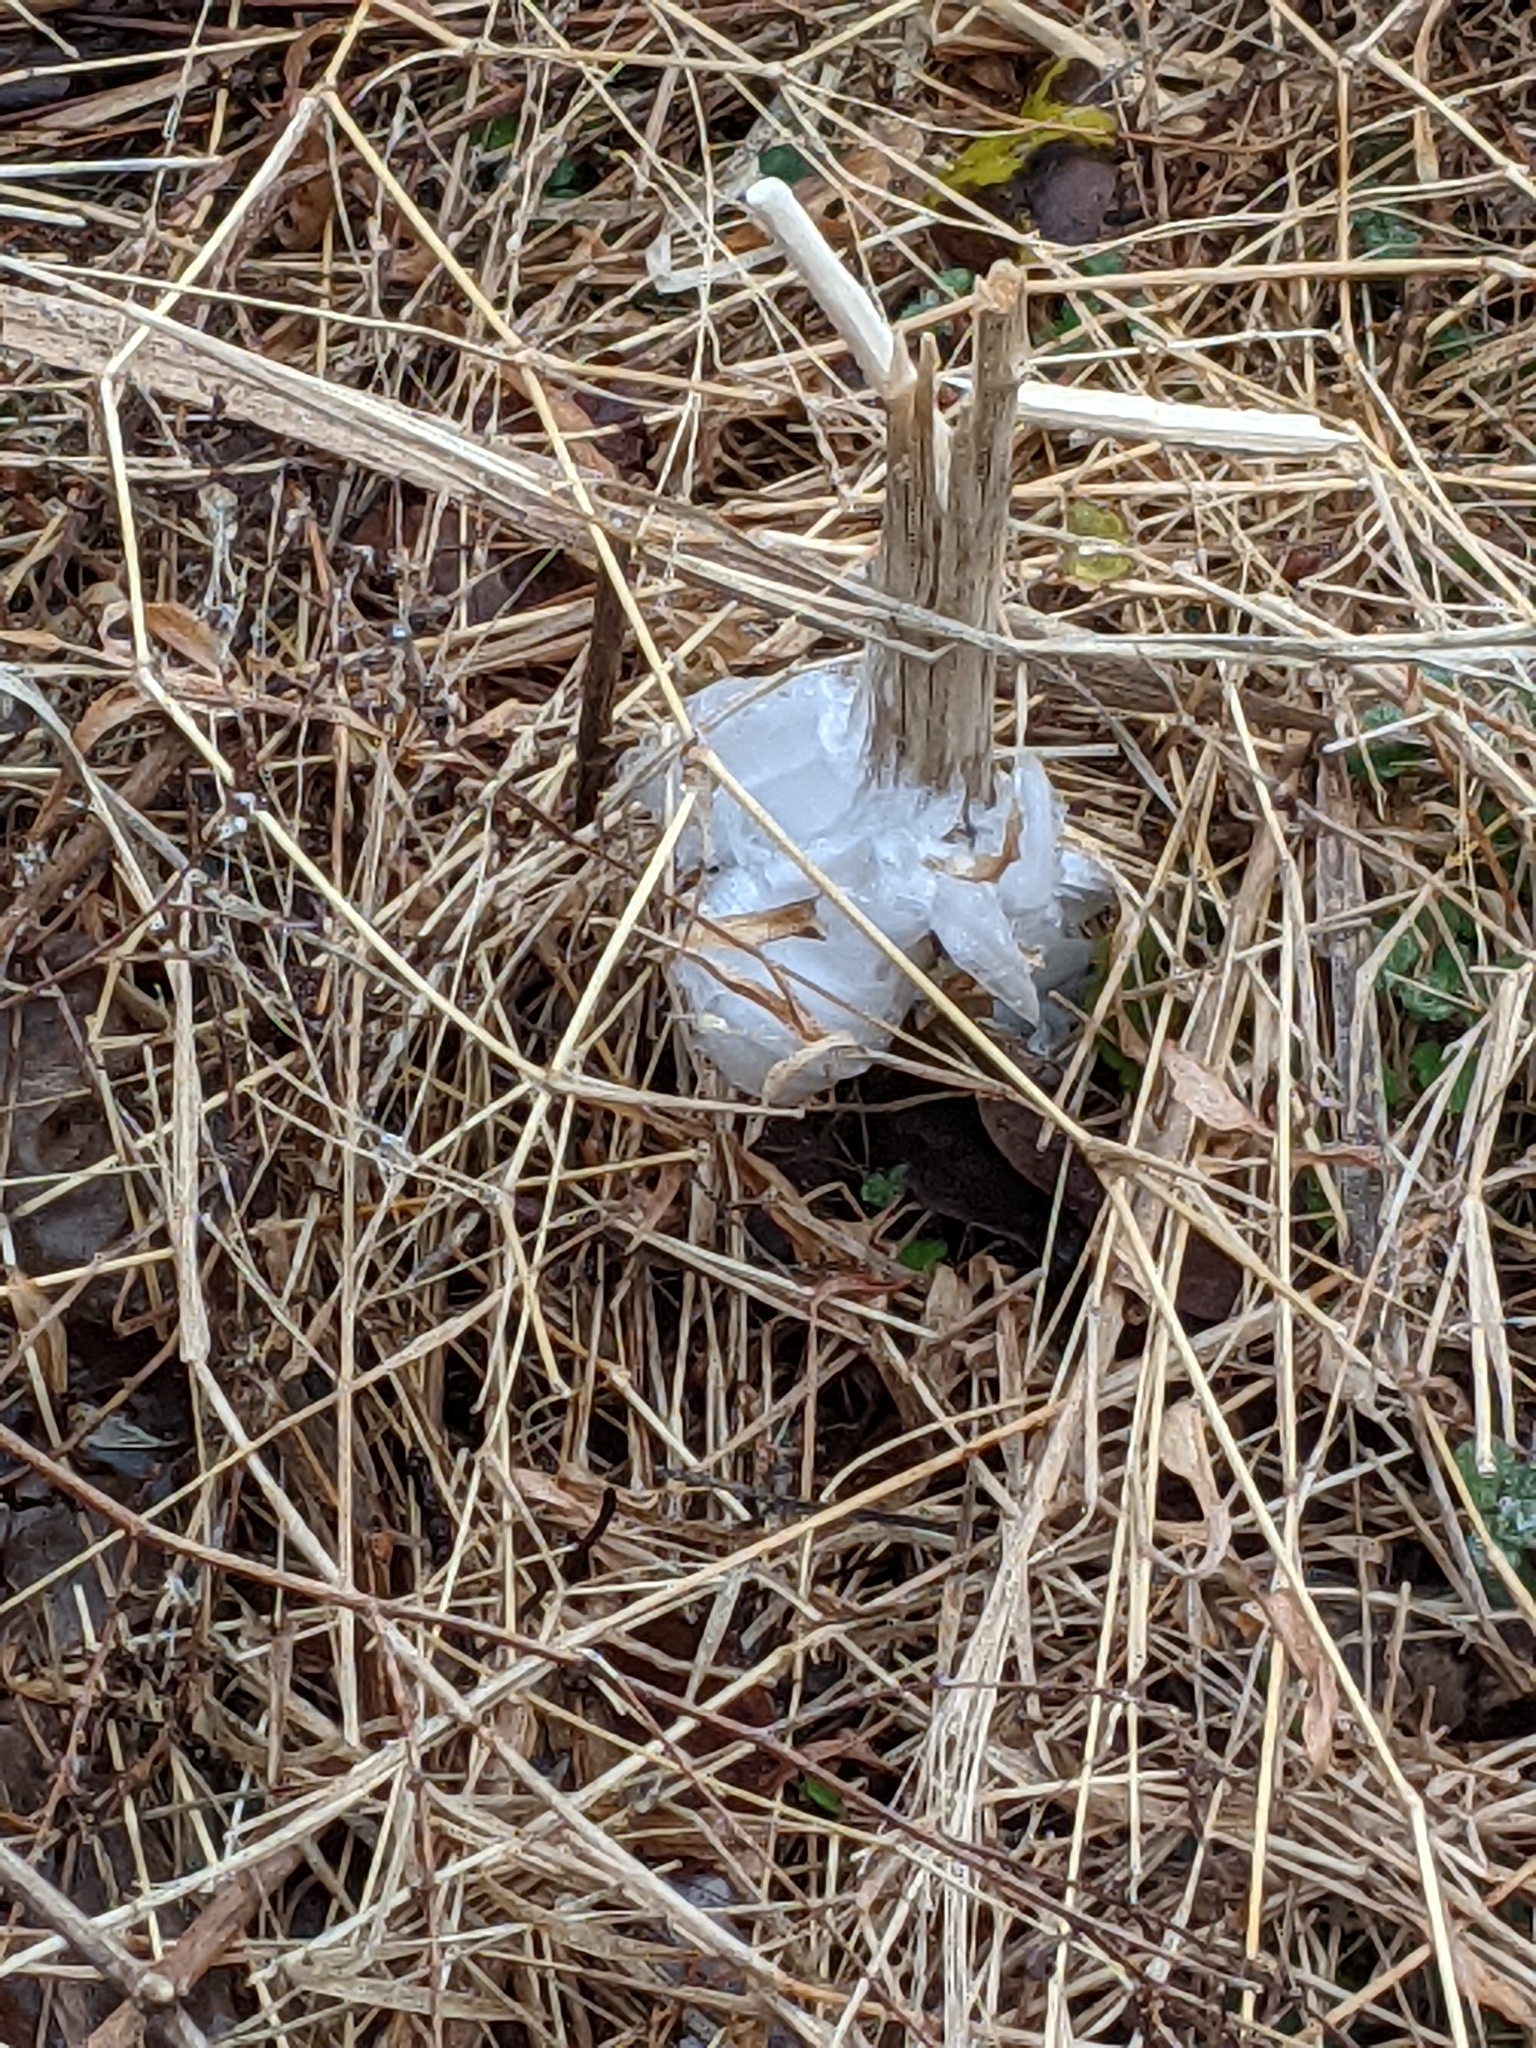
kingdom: Plantae
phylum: Tracheophyta
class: Magnoliopsida
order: Asterales
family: Asteraceae
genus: Verbesina
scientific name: Verbesina virginica
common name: Frostweed
